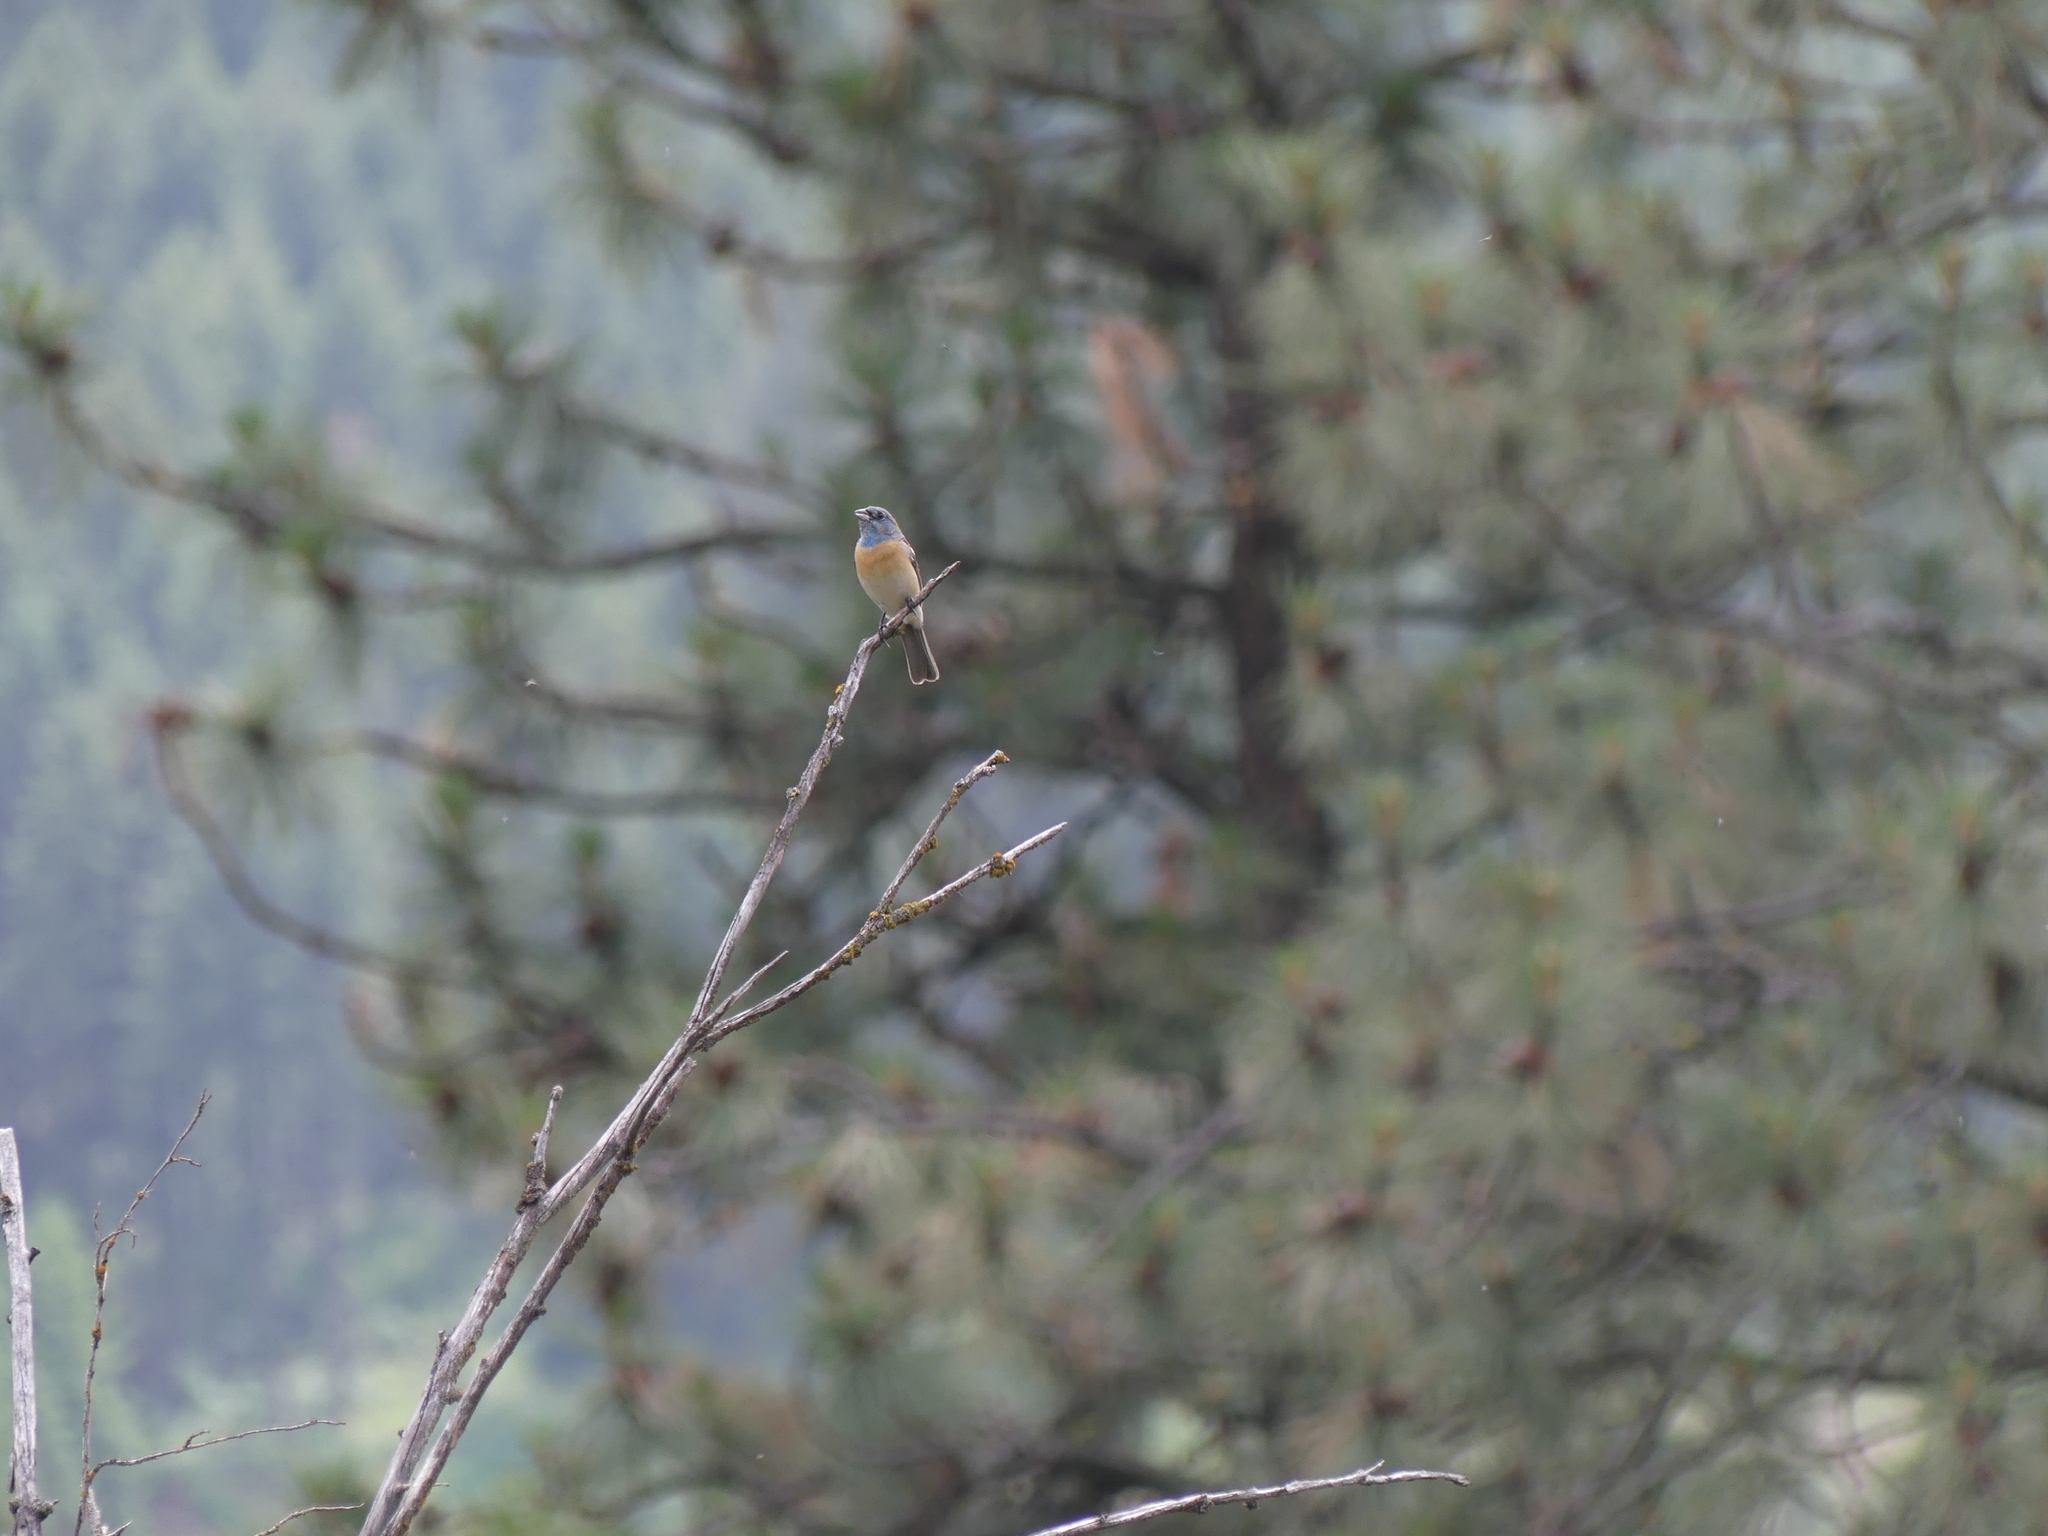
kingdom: Animalia
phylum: Chordata
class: Aves
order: Passeriformes
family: Cardinalidae
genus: Passerina
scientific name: Passerina amoena
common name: Lazuli bunting
